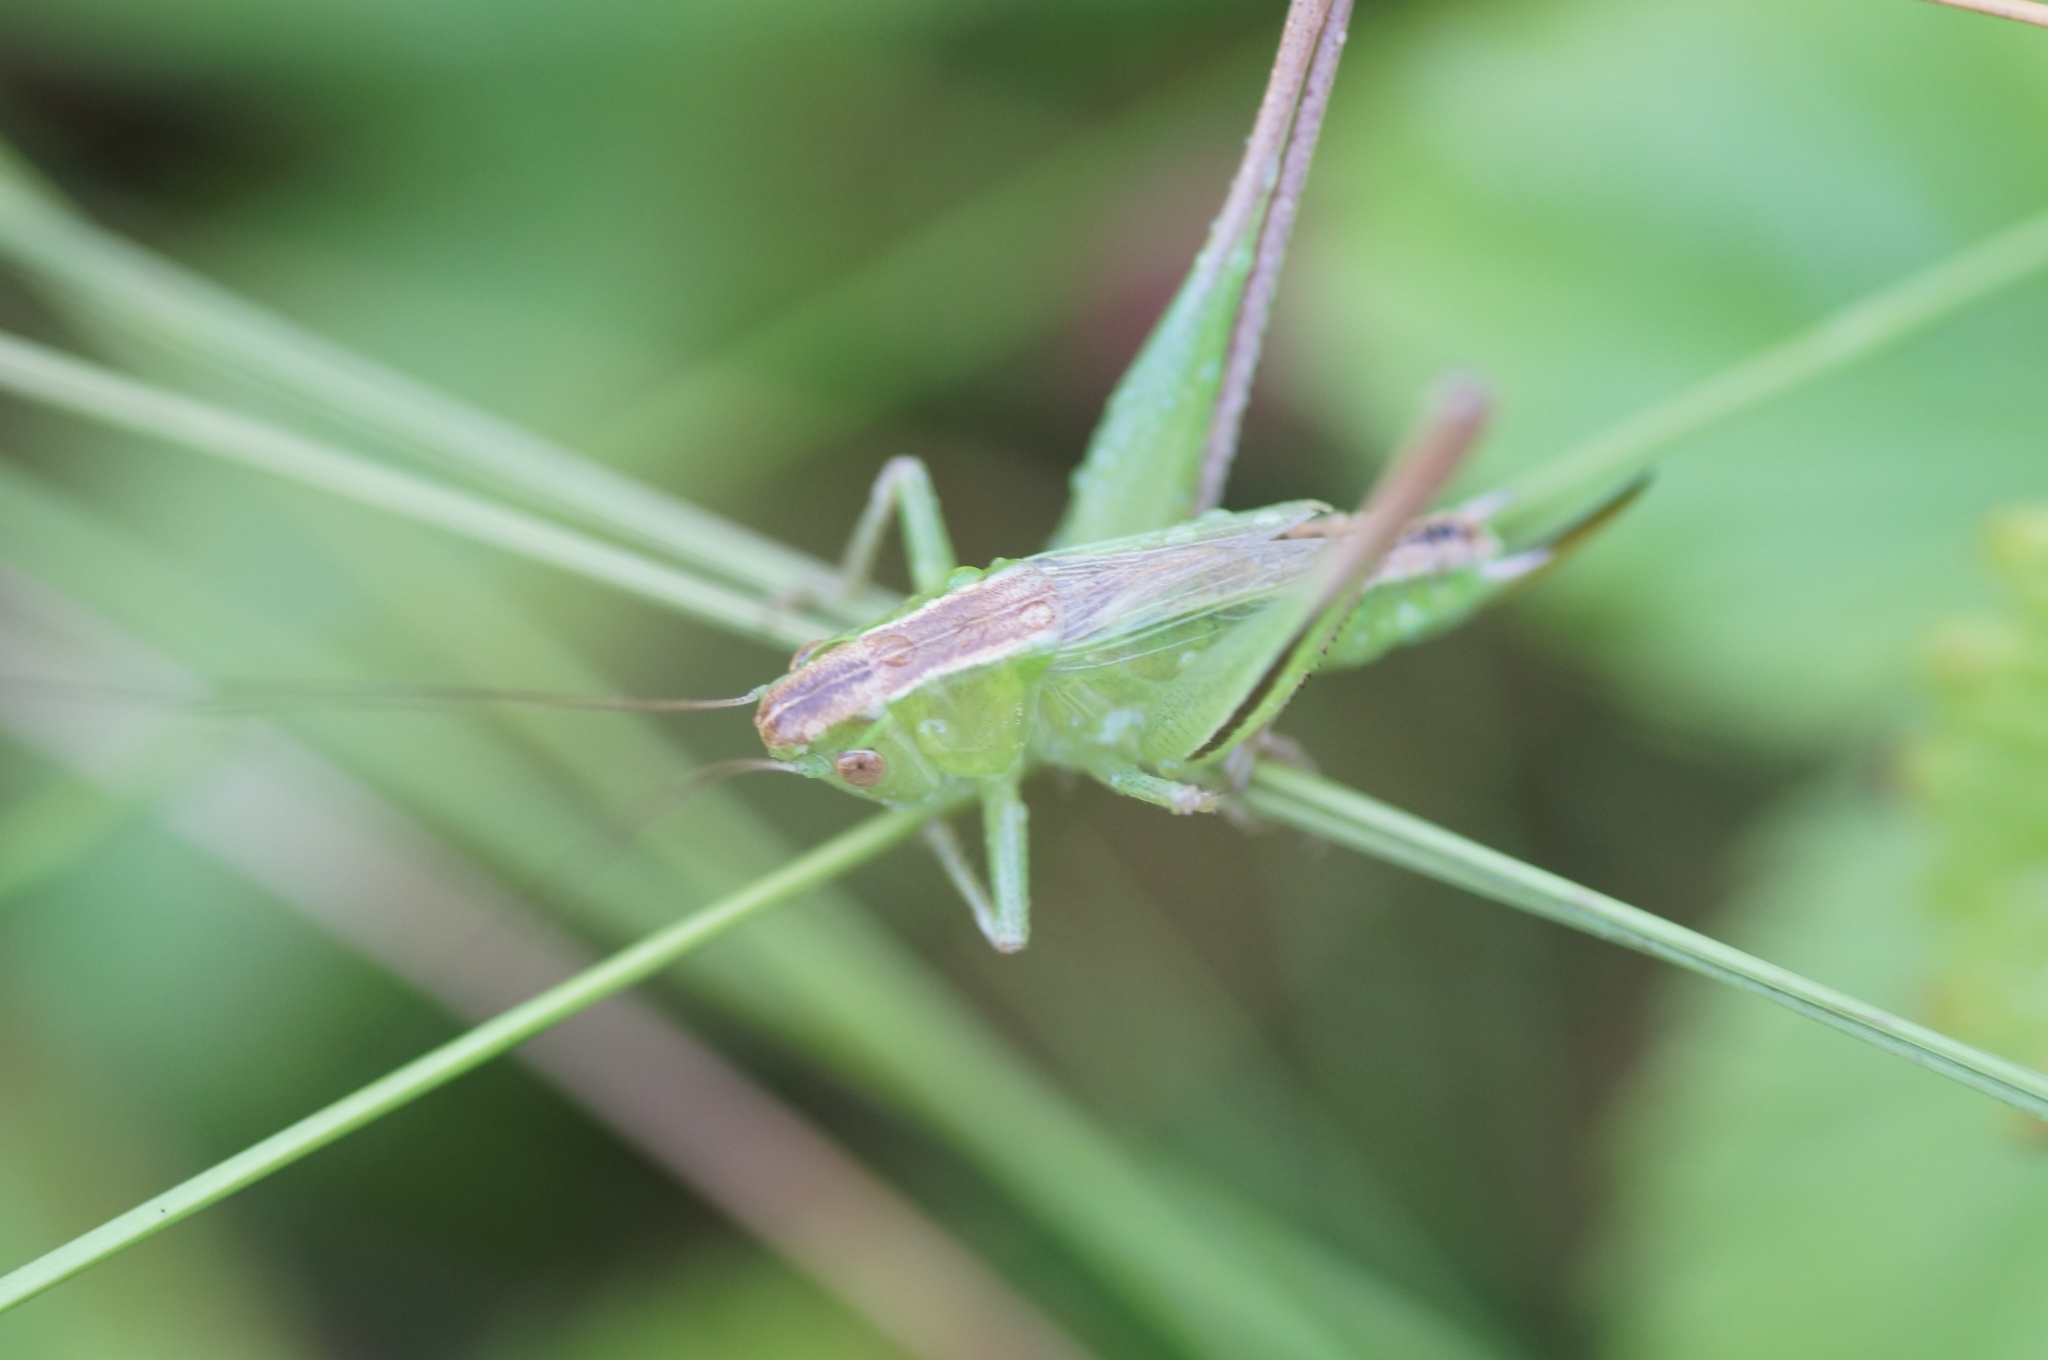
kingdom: Animalia
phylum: Arthropoda
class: Insecta
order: Orthoptera
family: Tettigoniidae
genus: Bicolorana
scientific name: Bicolorana bicolor
